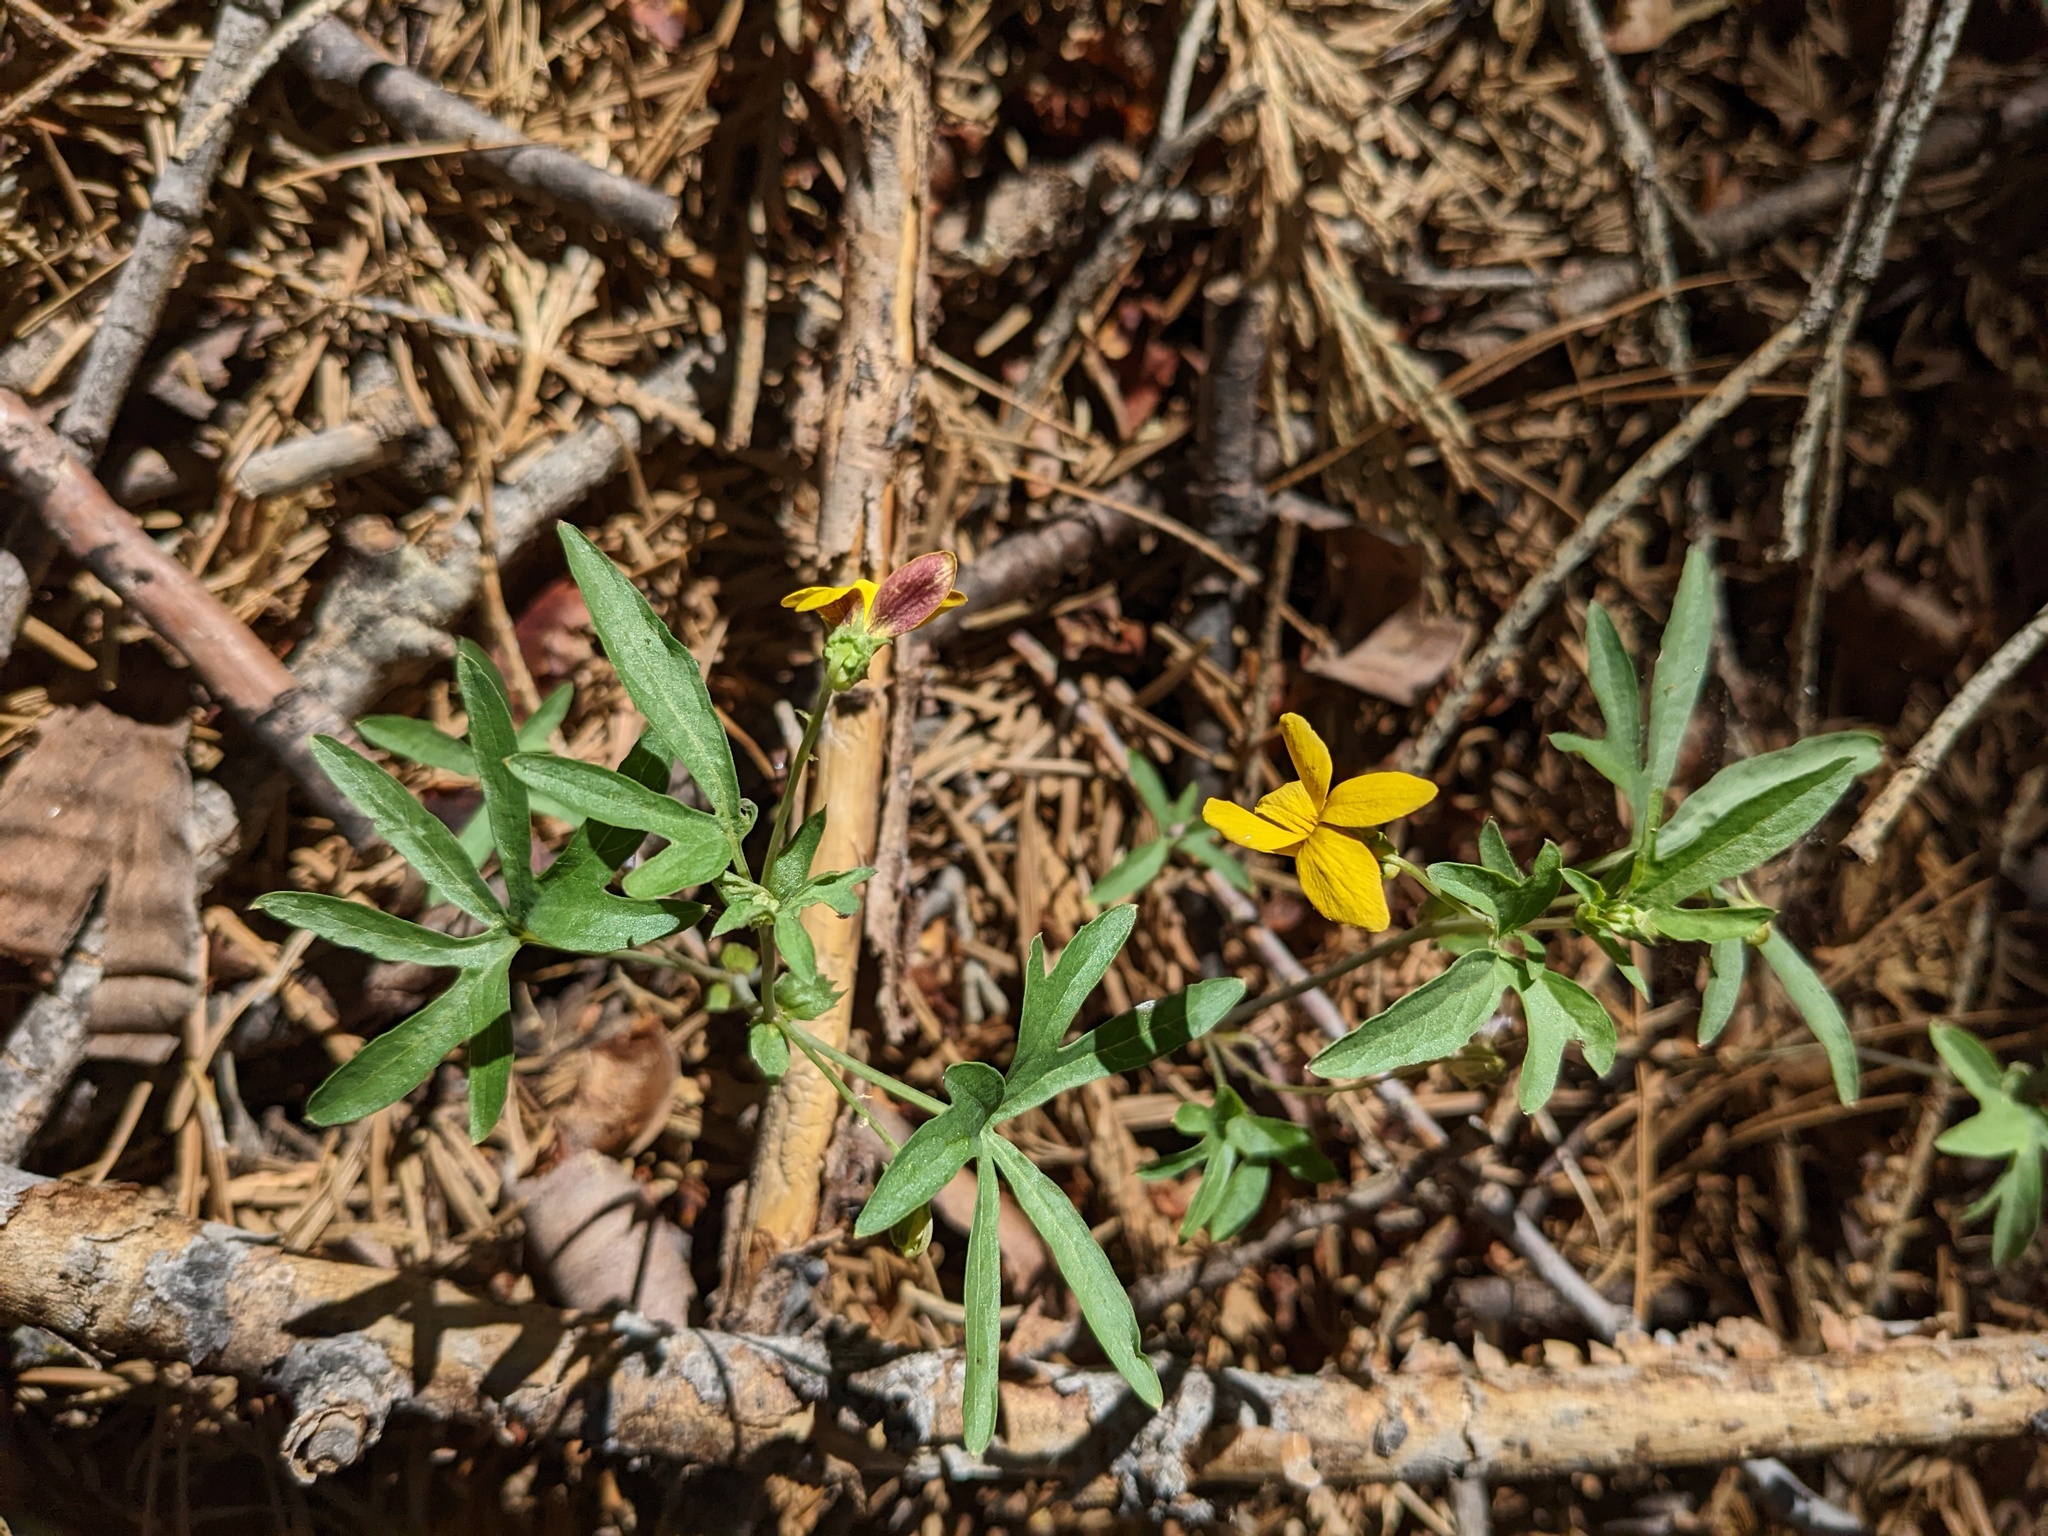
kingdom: Plantae
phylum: Tracheophyta
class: Magnoliopsida
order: Malpighiales
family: Violaceae
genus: Viola
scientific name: Viola lobata
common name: Pine violet
